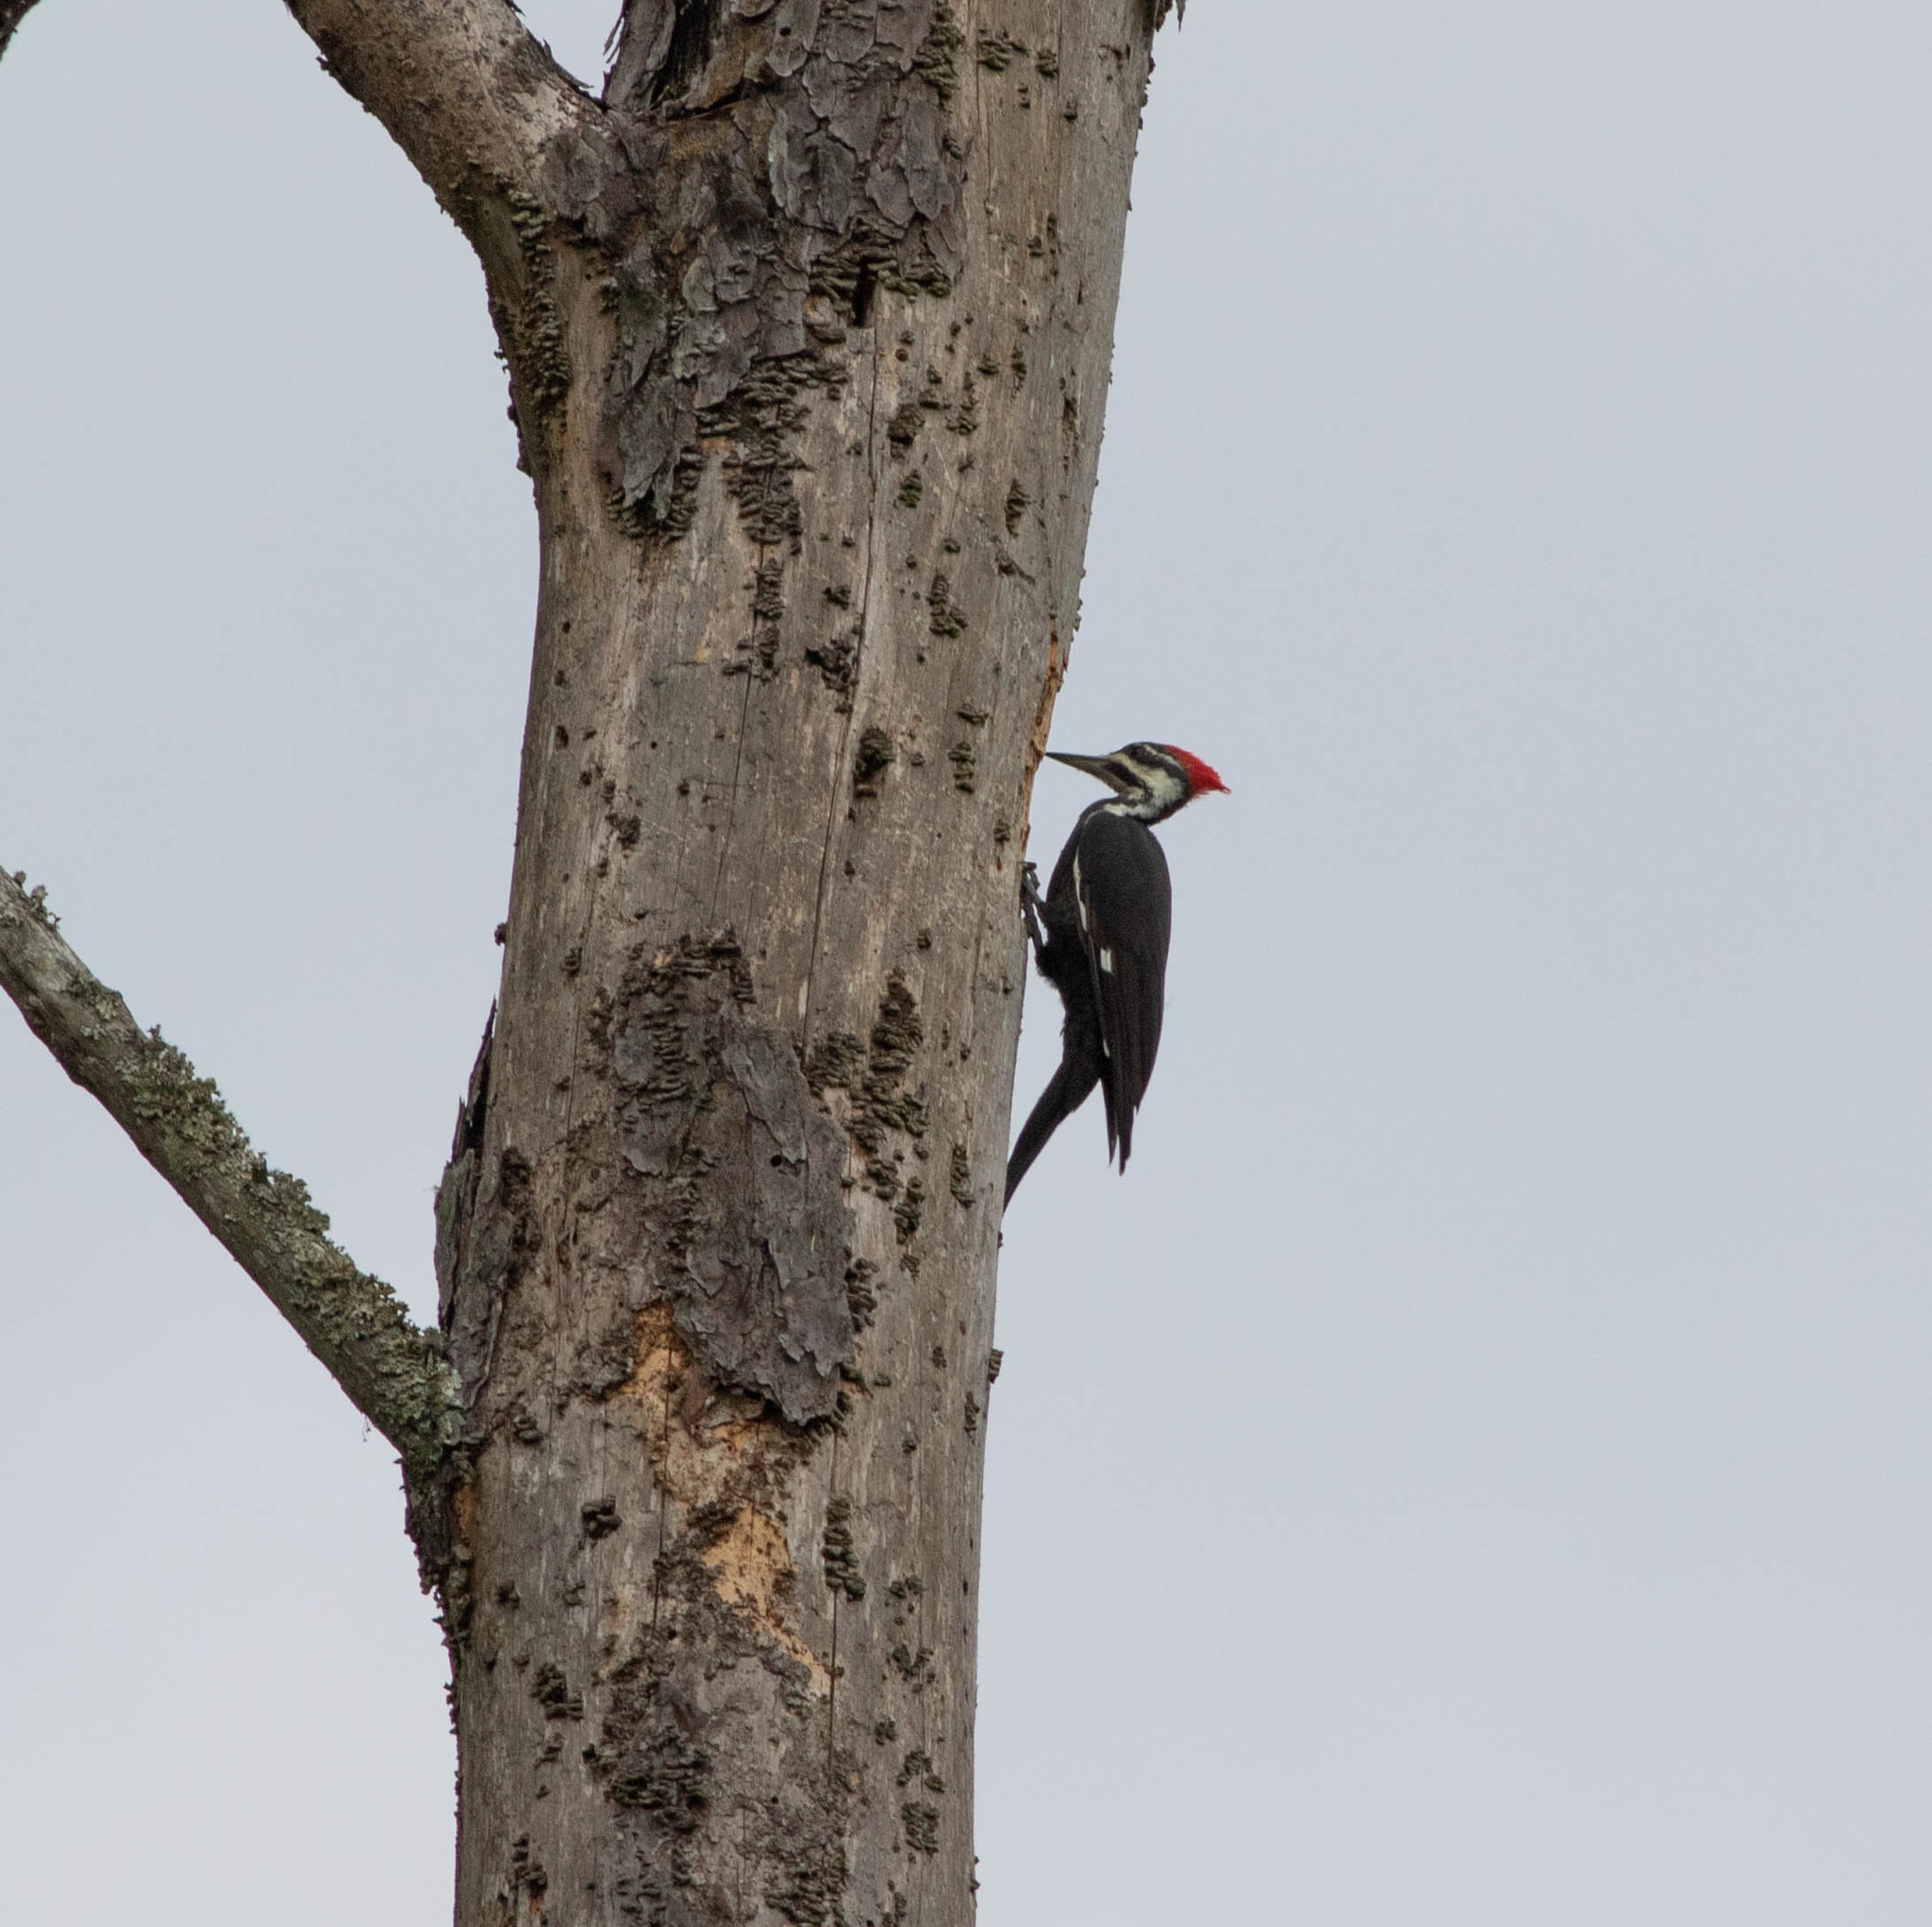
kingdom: Animalia
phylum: Chordata
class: Aves
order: Piciformes
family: Picidae
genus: Dryocopus
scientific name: Dryocopus pileatus
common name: Pileated woodpecker
